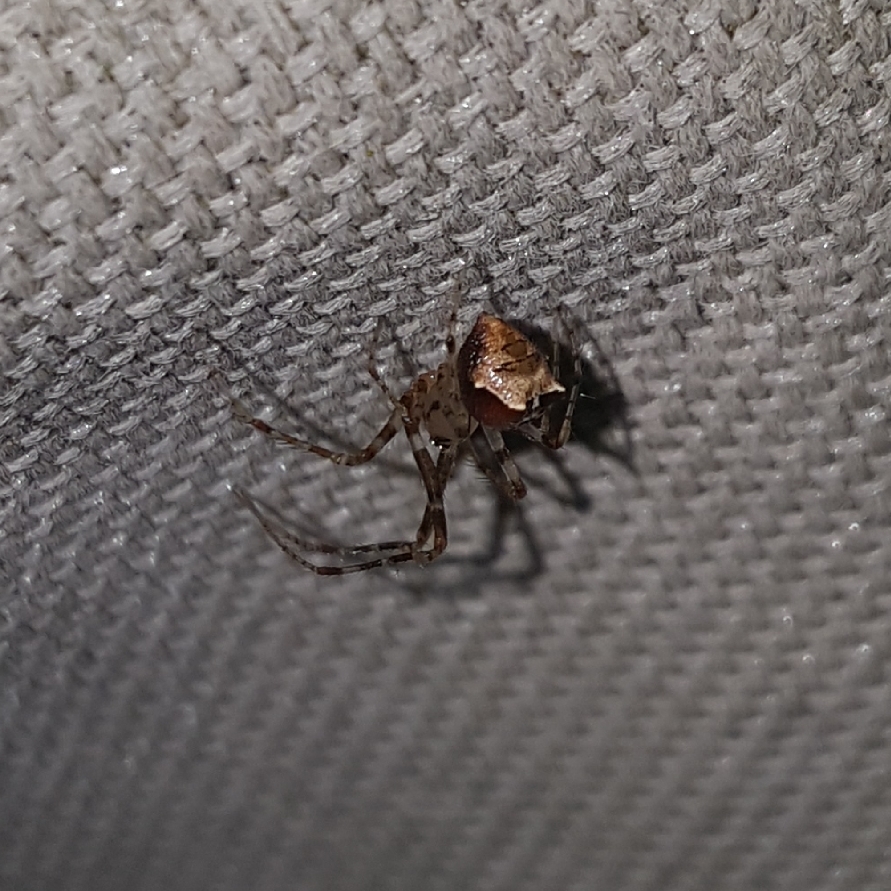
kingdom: Animalia
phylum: Arthropoda
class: Arachnida
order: Araneae
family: Mimetidae
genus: Ero
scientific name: Ero tuberculata
